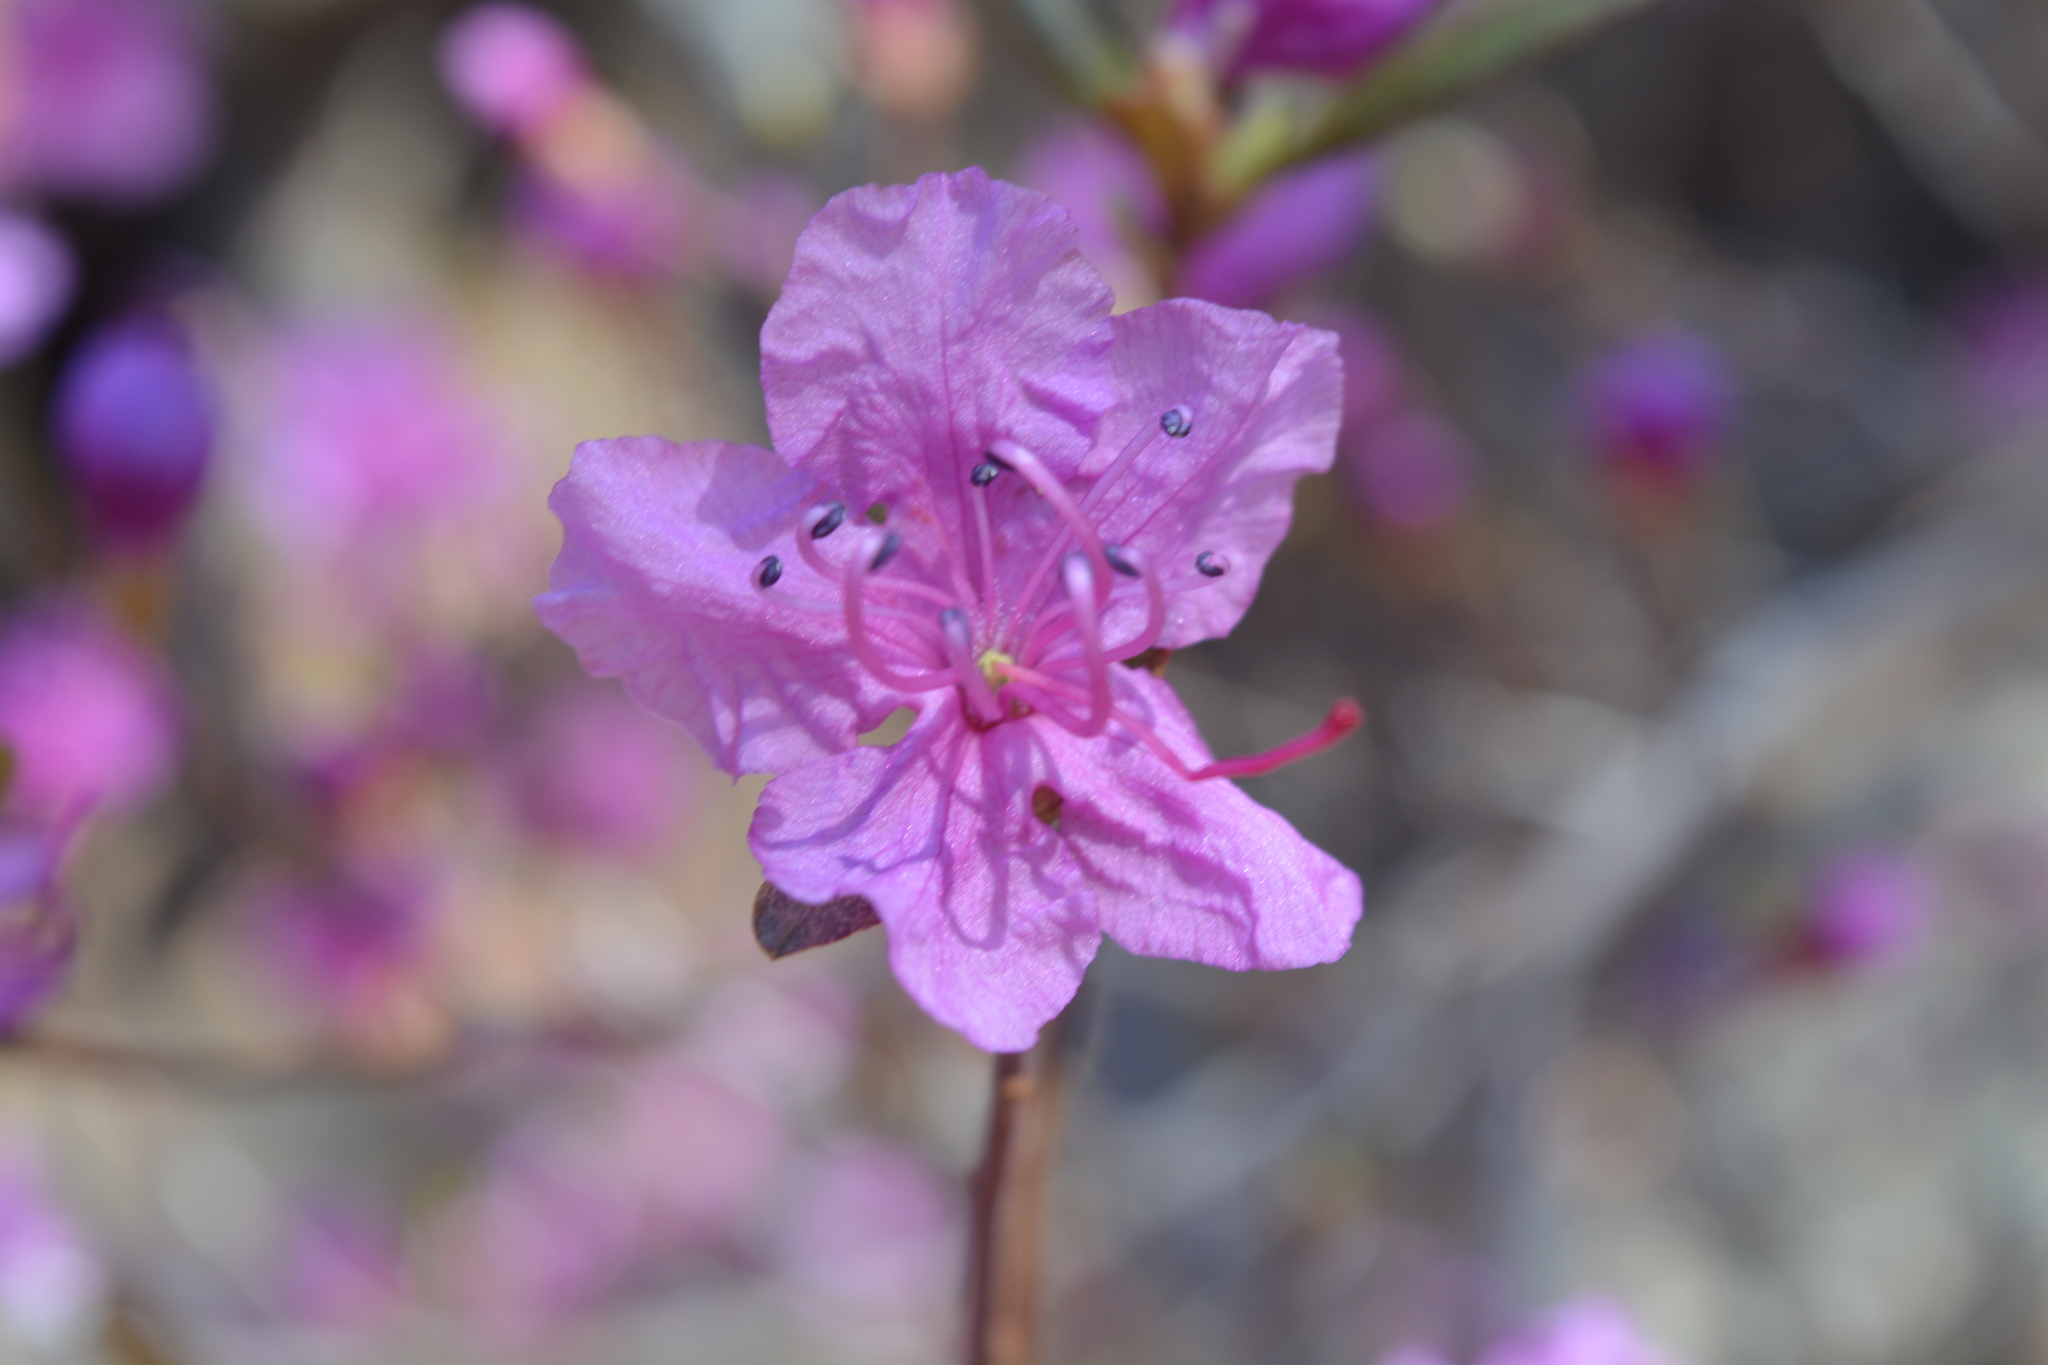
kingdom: Plantae
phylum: Tracheophyta
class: Magnoliopsida
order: Ericales
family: Ericaceae
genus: Rhododendron
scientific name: Rhododendron dauricum
